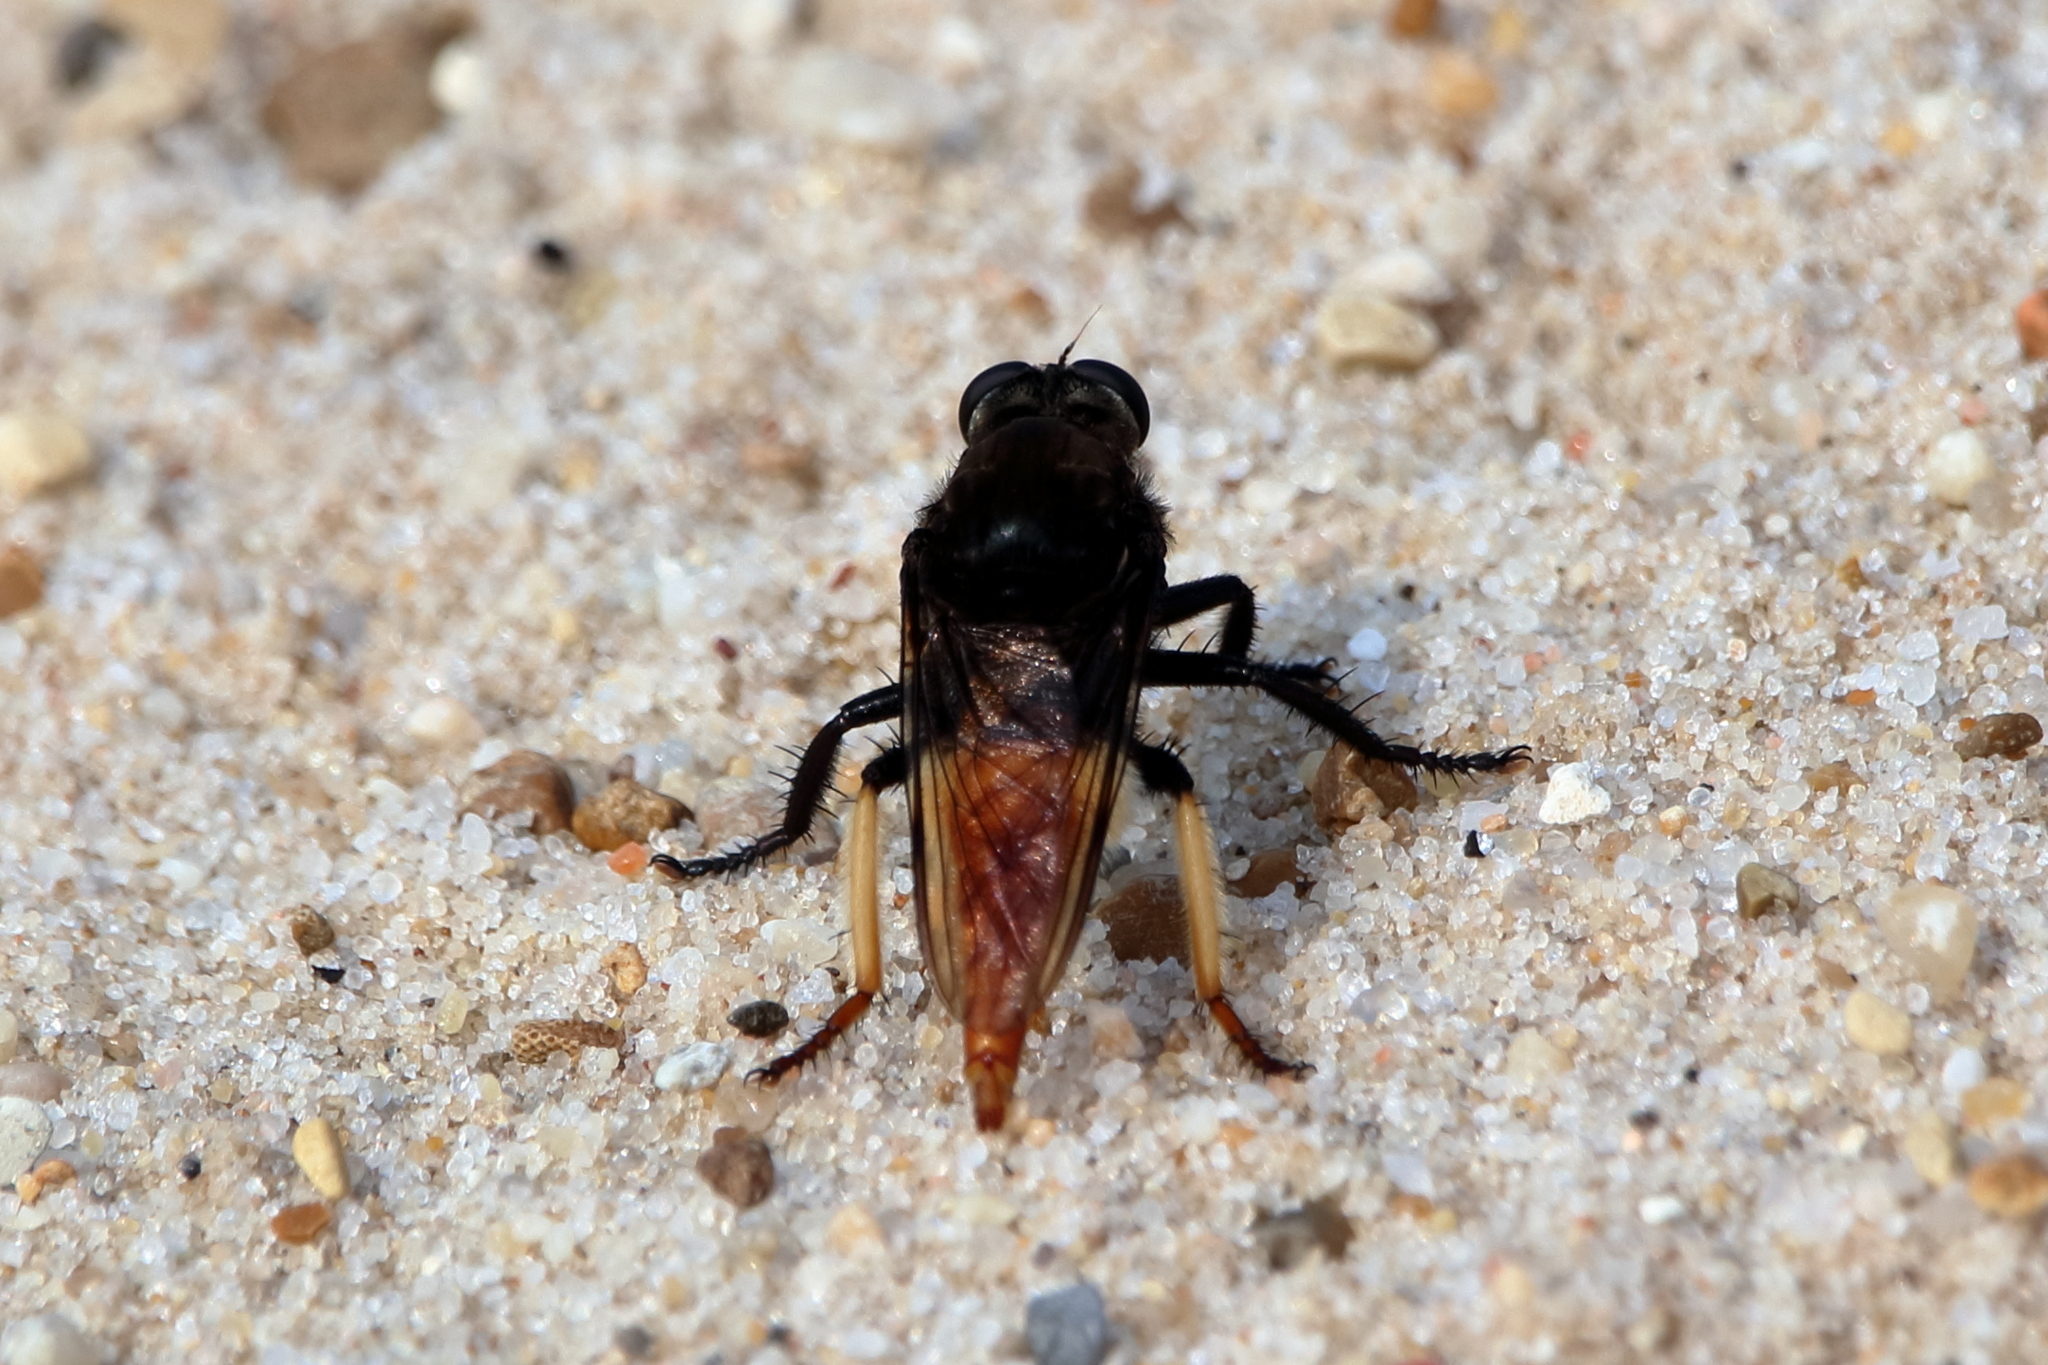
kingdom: Animalia
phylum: Arthropoda
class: Insecta
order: Diptera
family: Asilidae
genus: Eccritosia
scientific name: Eccritosia zamon
